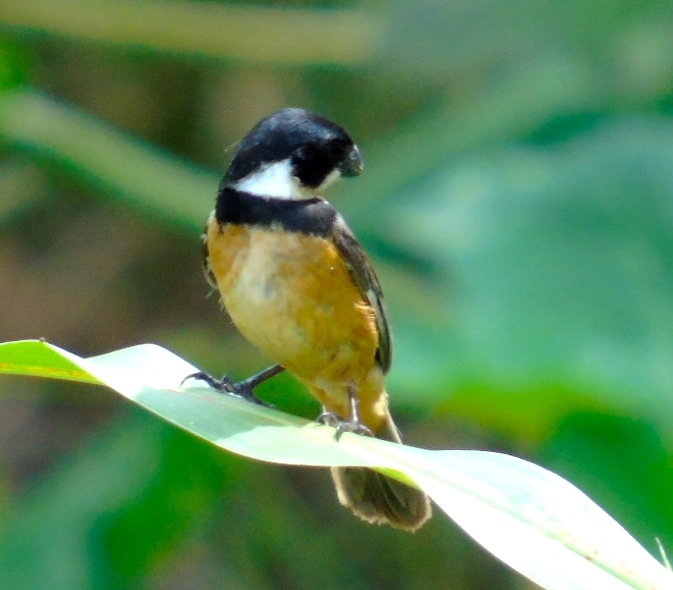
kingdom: Animalia
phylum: Chordata
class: Aves
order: Passeriformes
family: Thraupidae
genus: Sporophila
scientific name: Sporophila torqueola
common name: White-collared seedeater
